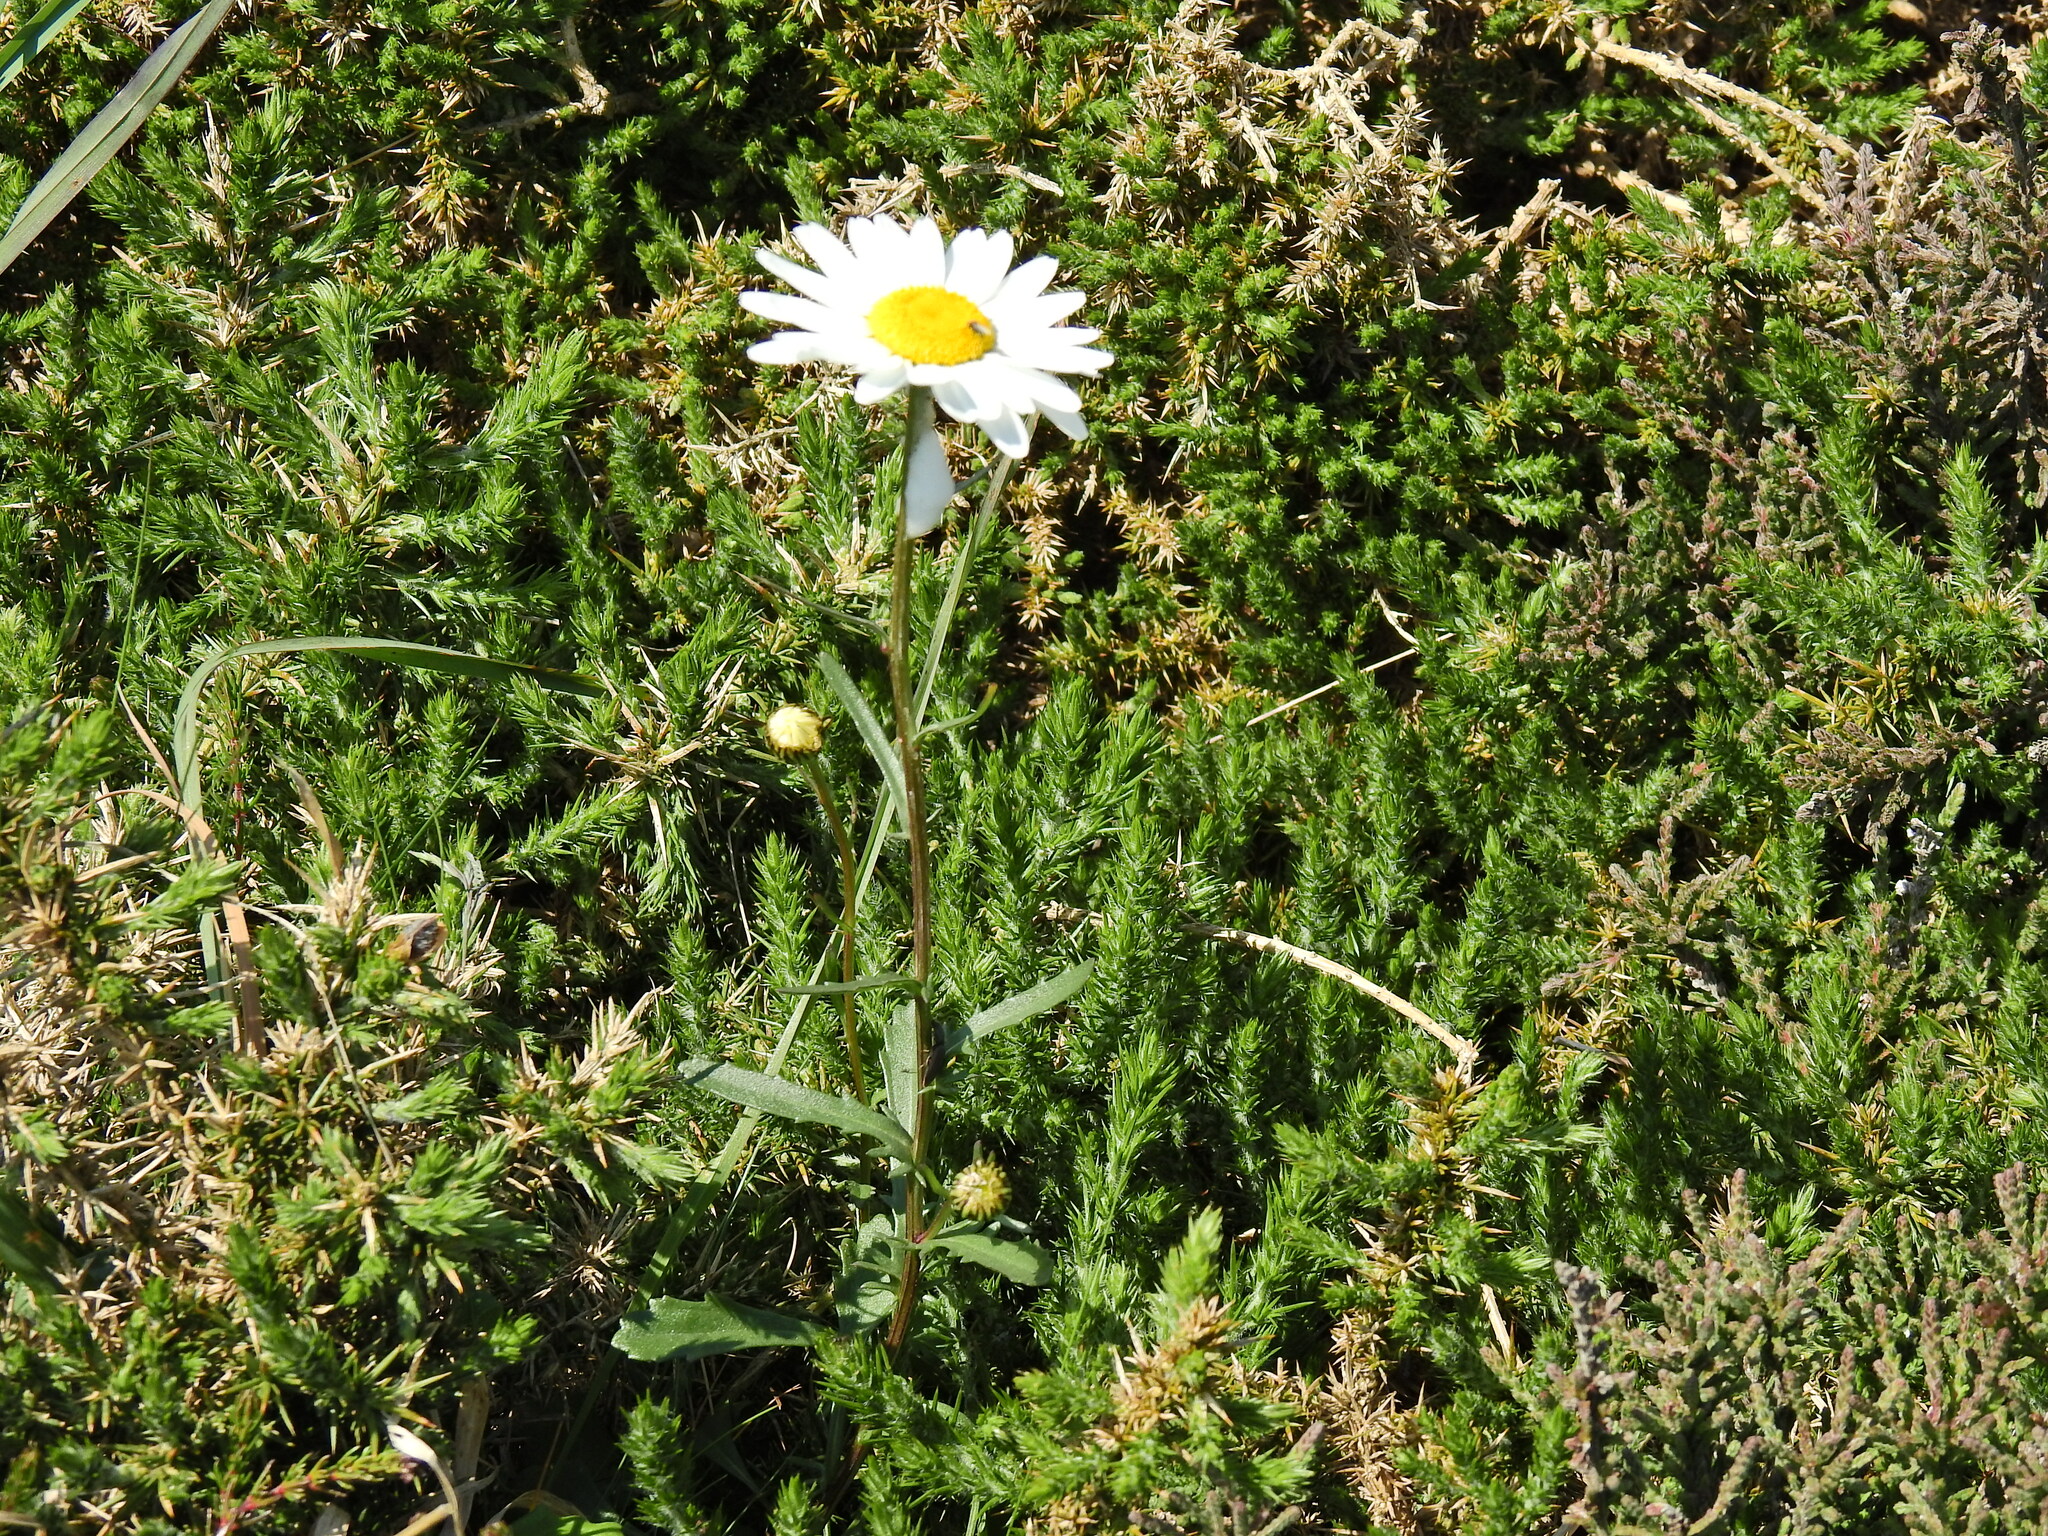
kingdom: Plantae
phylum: Tracheophyta
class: Magnoliopsida
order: Asterales
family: Asteraceae
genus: Leucanthemum
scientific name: Leucanthemum vulgare
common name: Oxeye daisy
